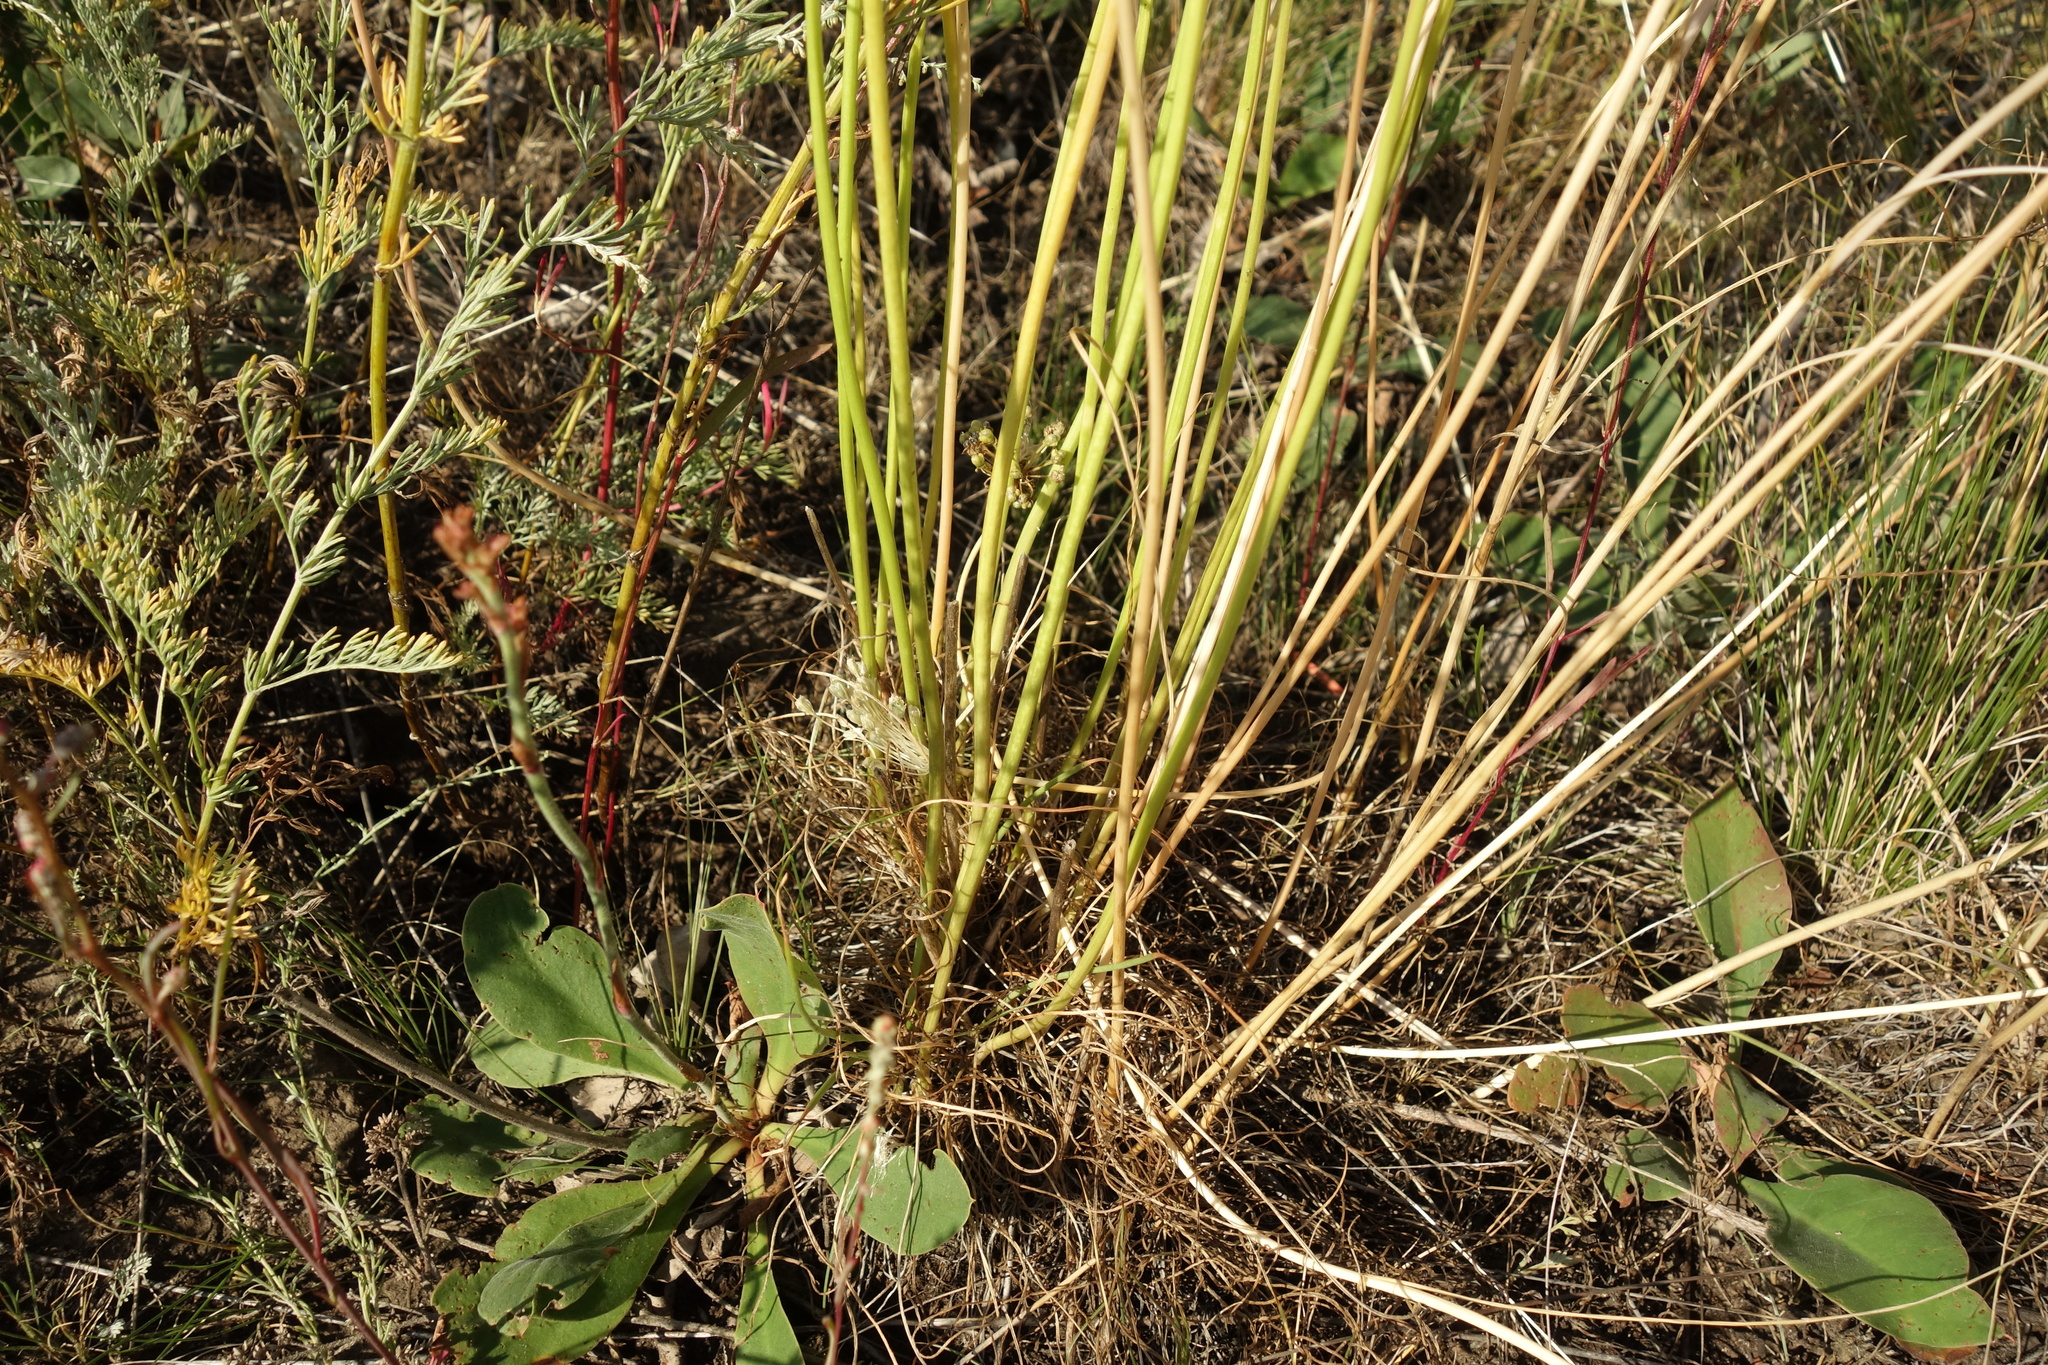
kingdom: Plantae
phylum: Tracheophyta
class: Liliopsida
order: Asparagales
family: Amaryllidaceae
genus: Allium
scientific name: Allium flavescens
